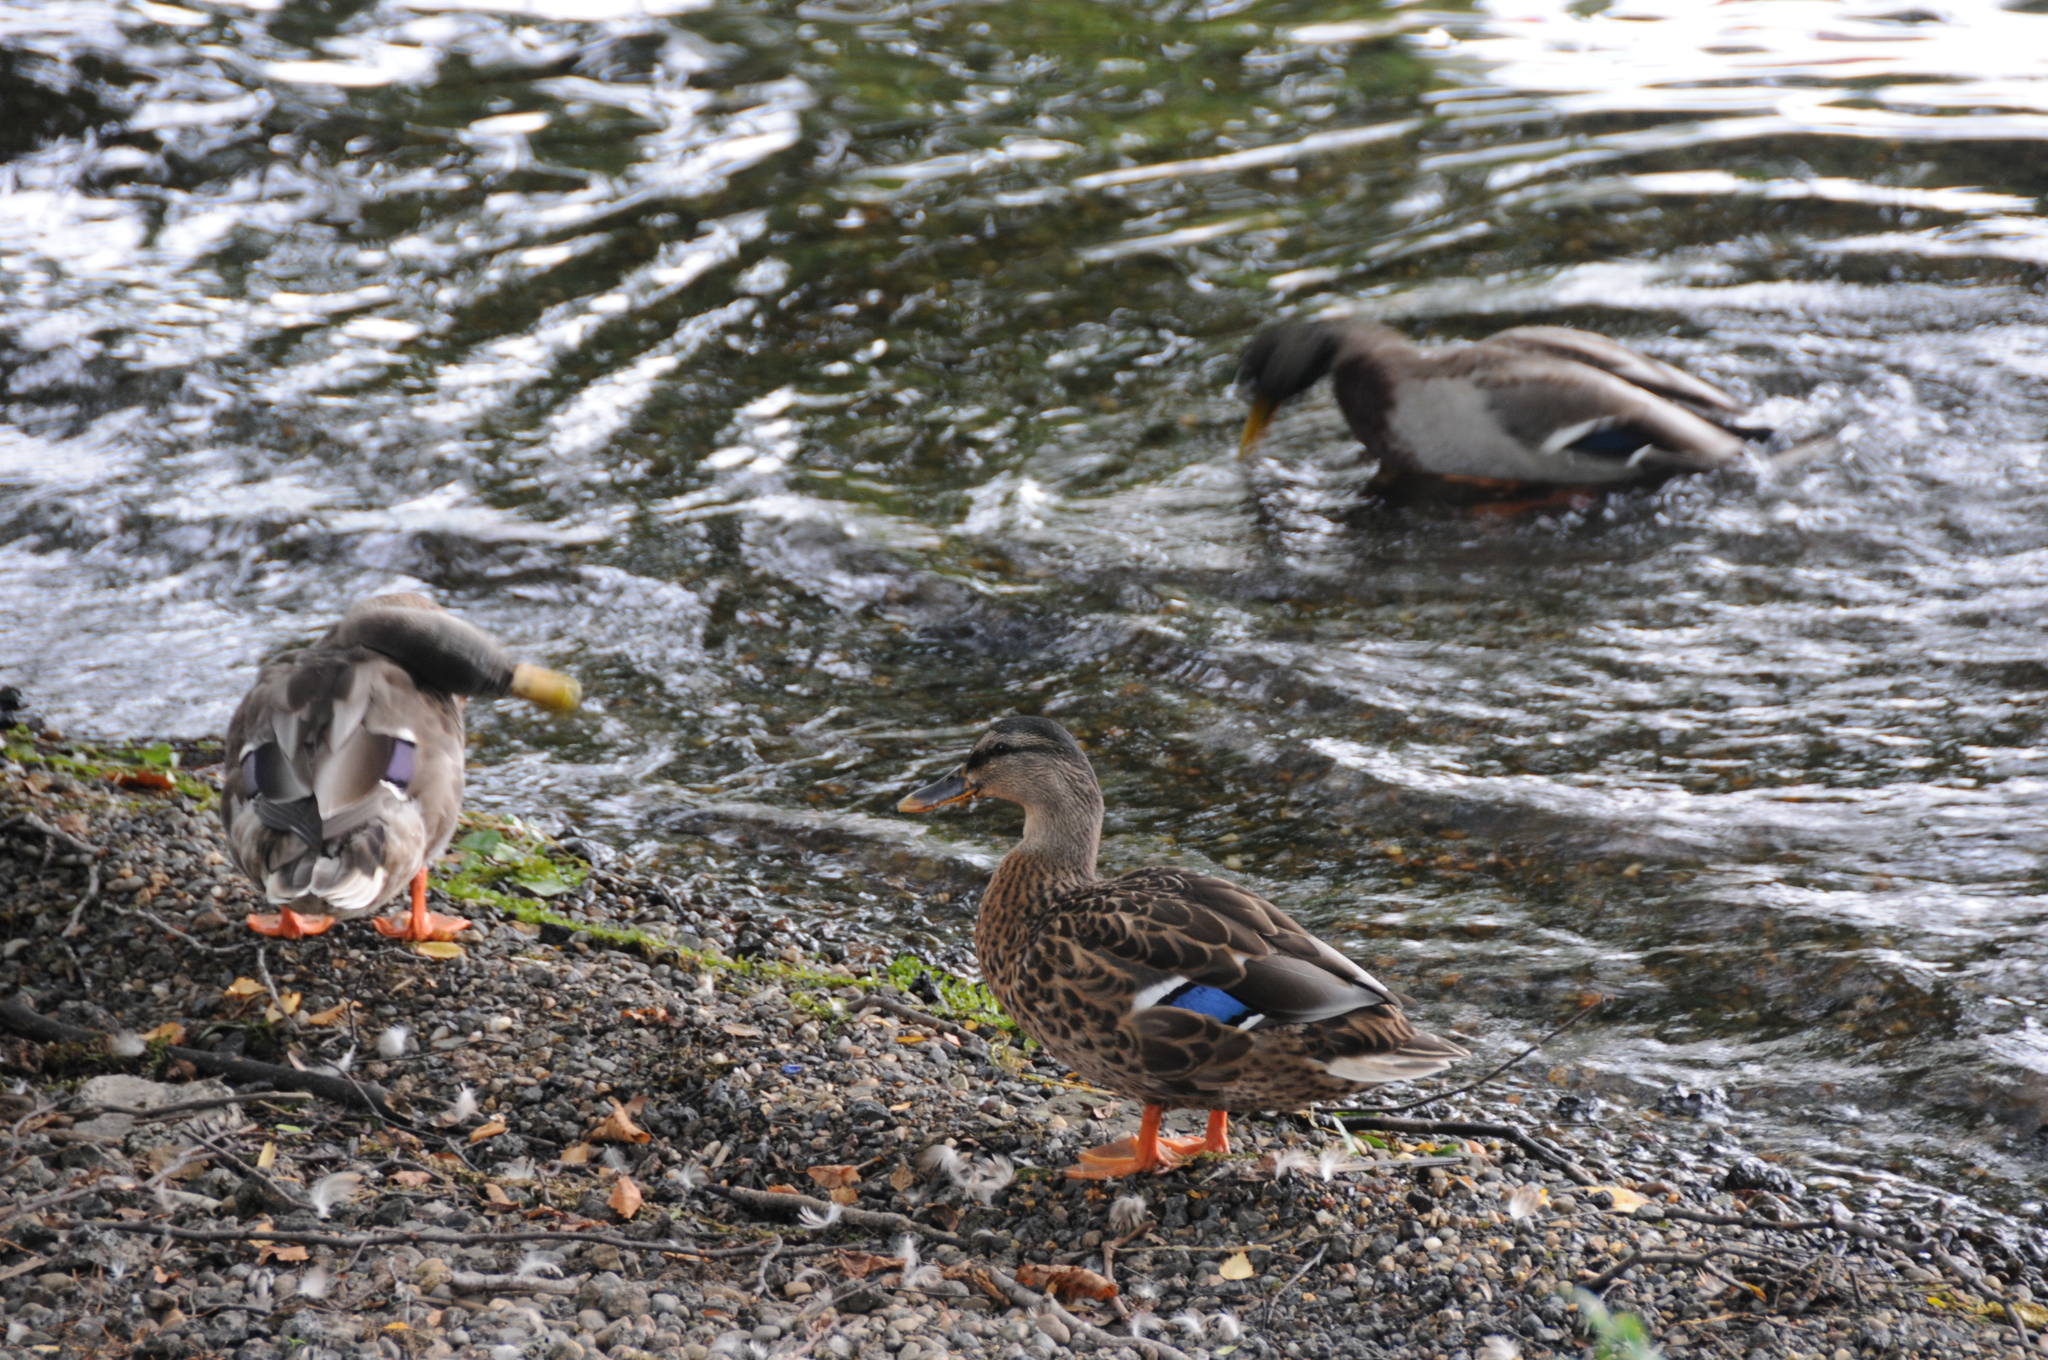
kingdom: Animalia
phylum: Chordata
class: Aves
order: Anseriformes
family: Anatidae
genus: Anas
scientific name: Anas platyrhynchos
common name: Mallard
